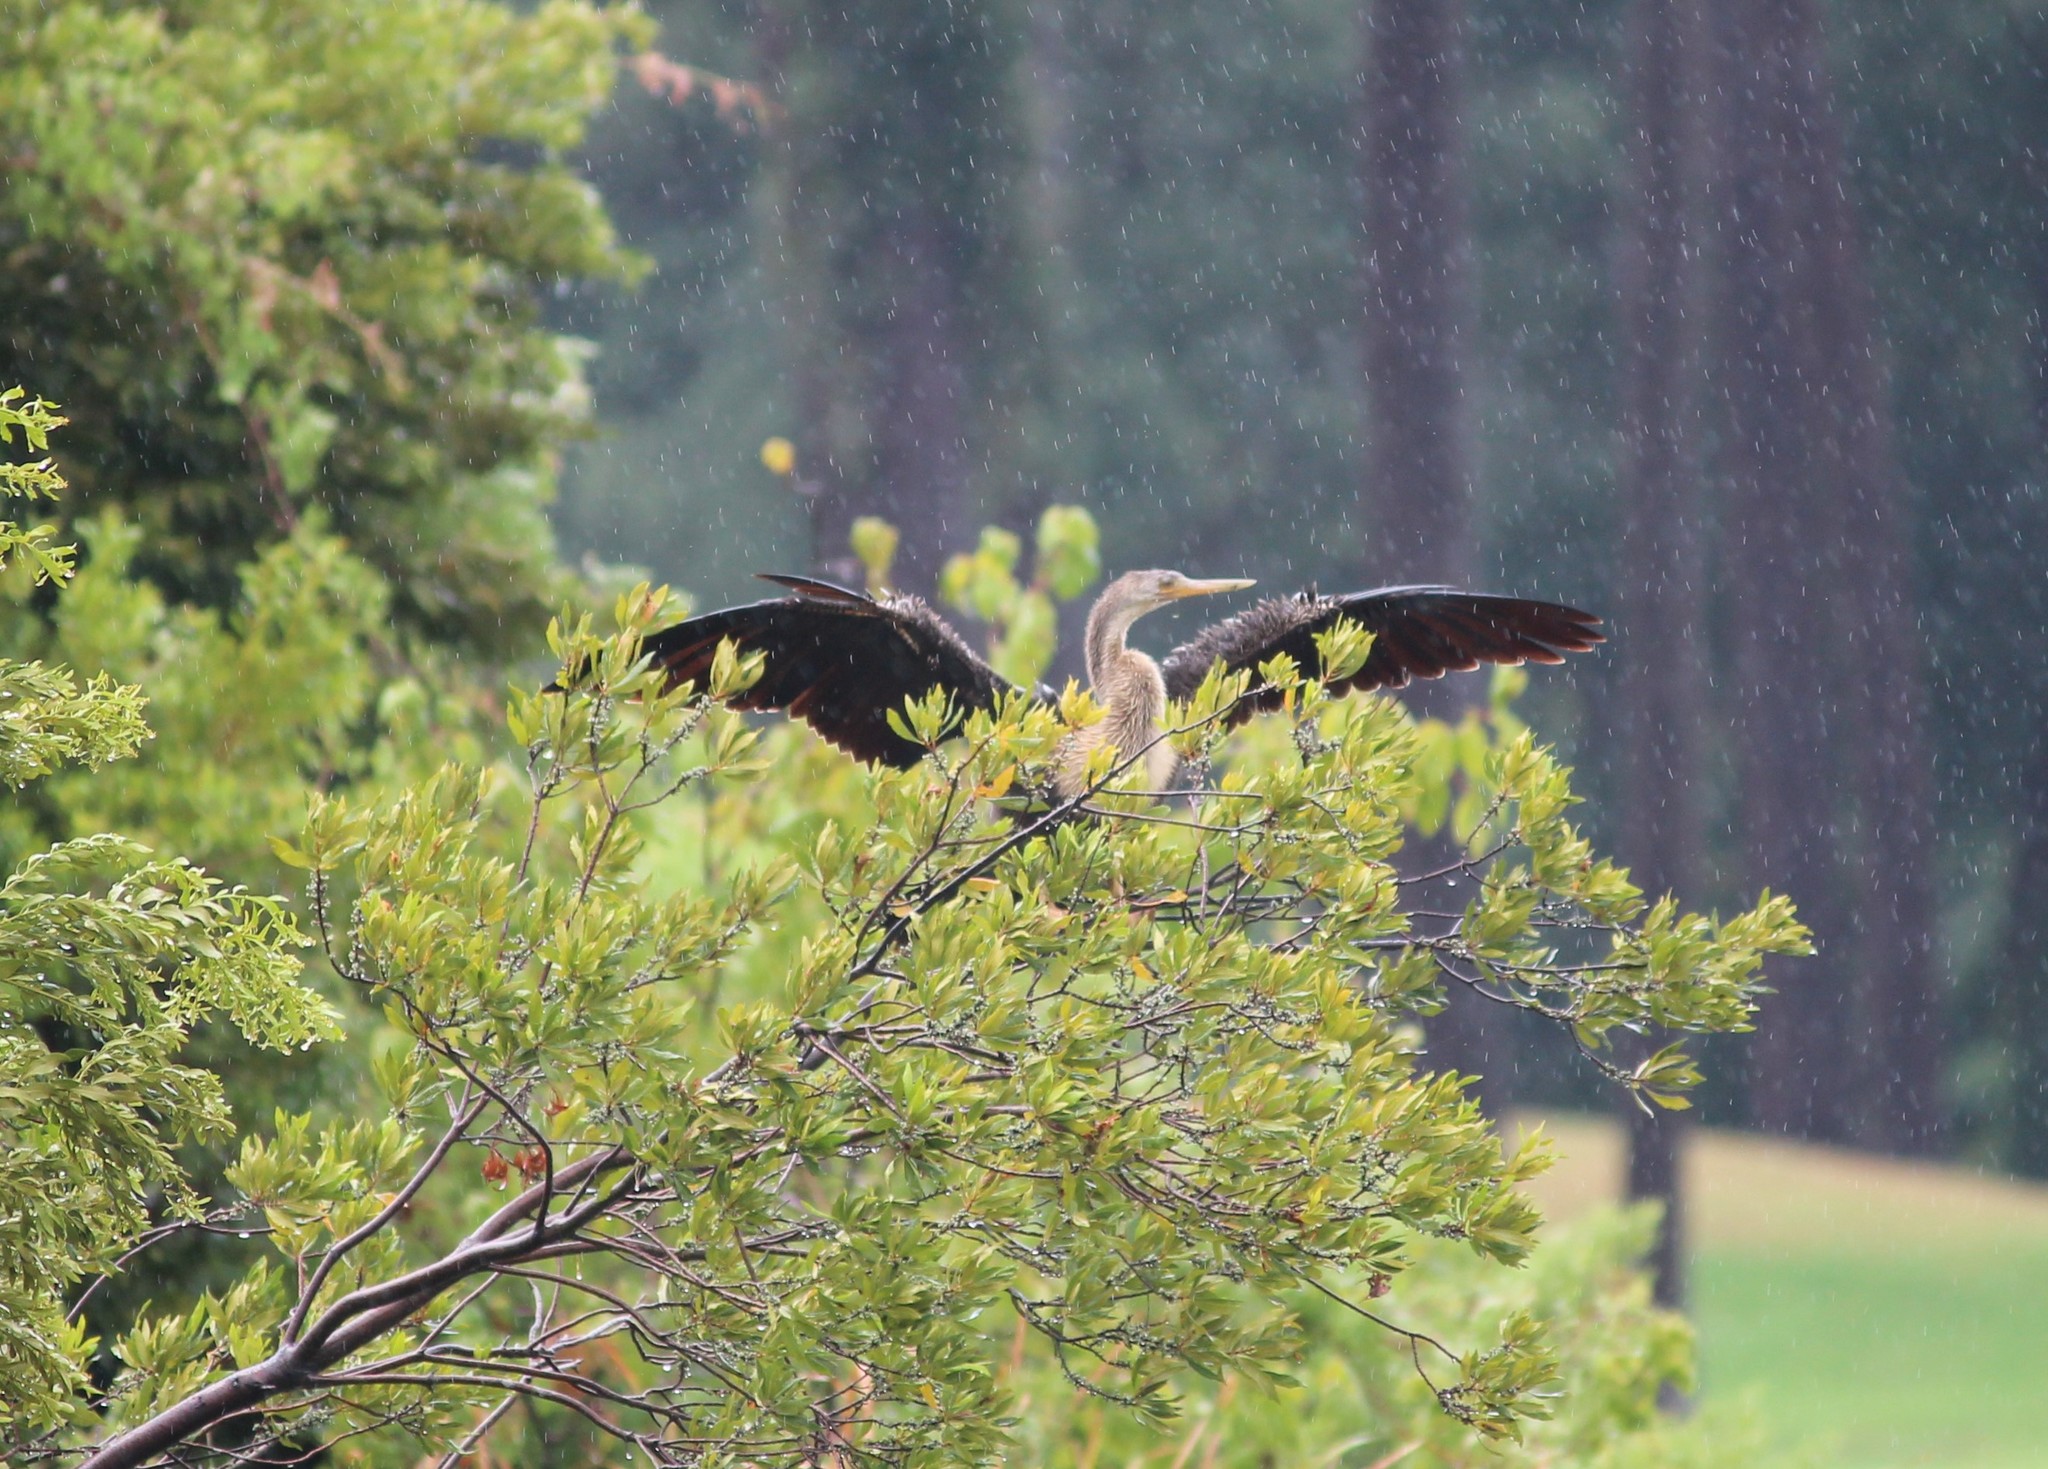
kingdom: Animalia
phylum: Chordata
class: Aves
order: Suliformes
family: Anhingidae
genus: Anhinga
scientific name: Anhinga anhinga
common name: Anhinga
